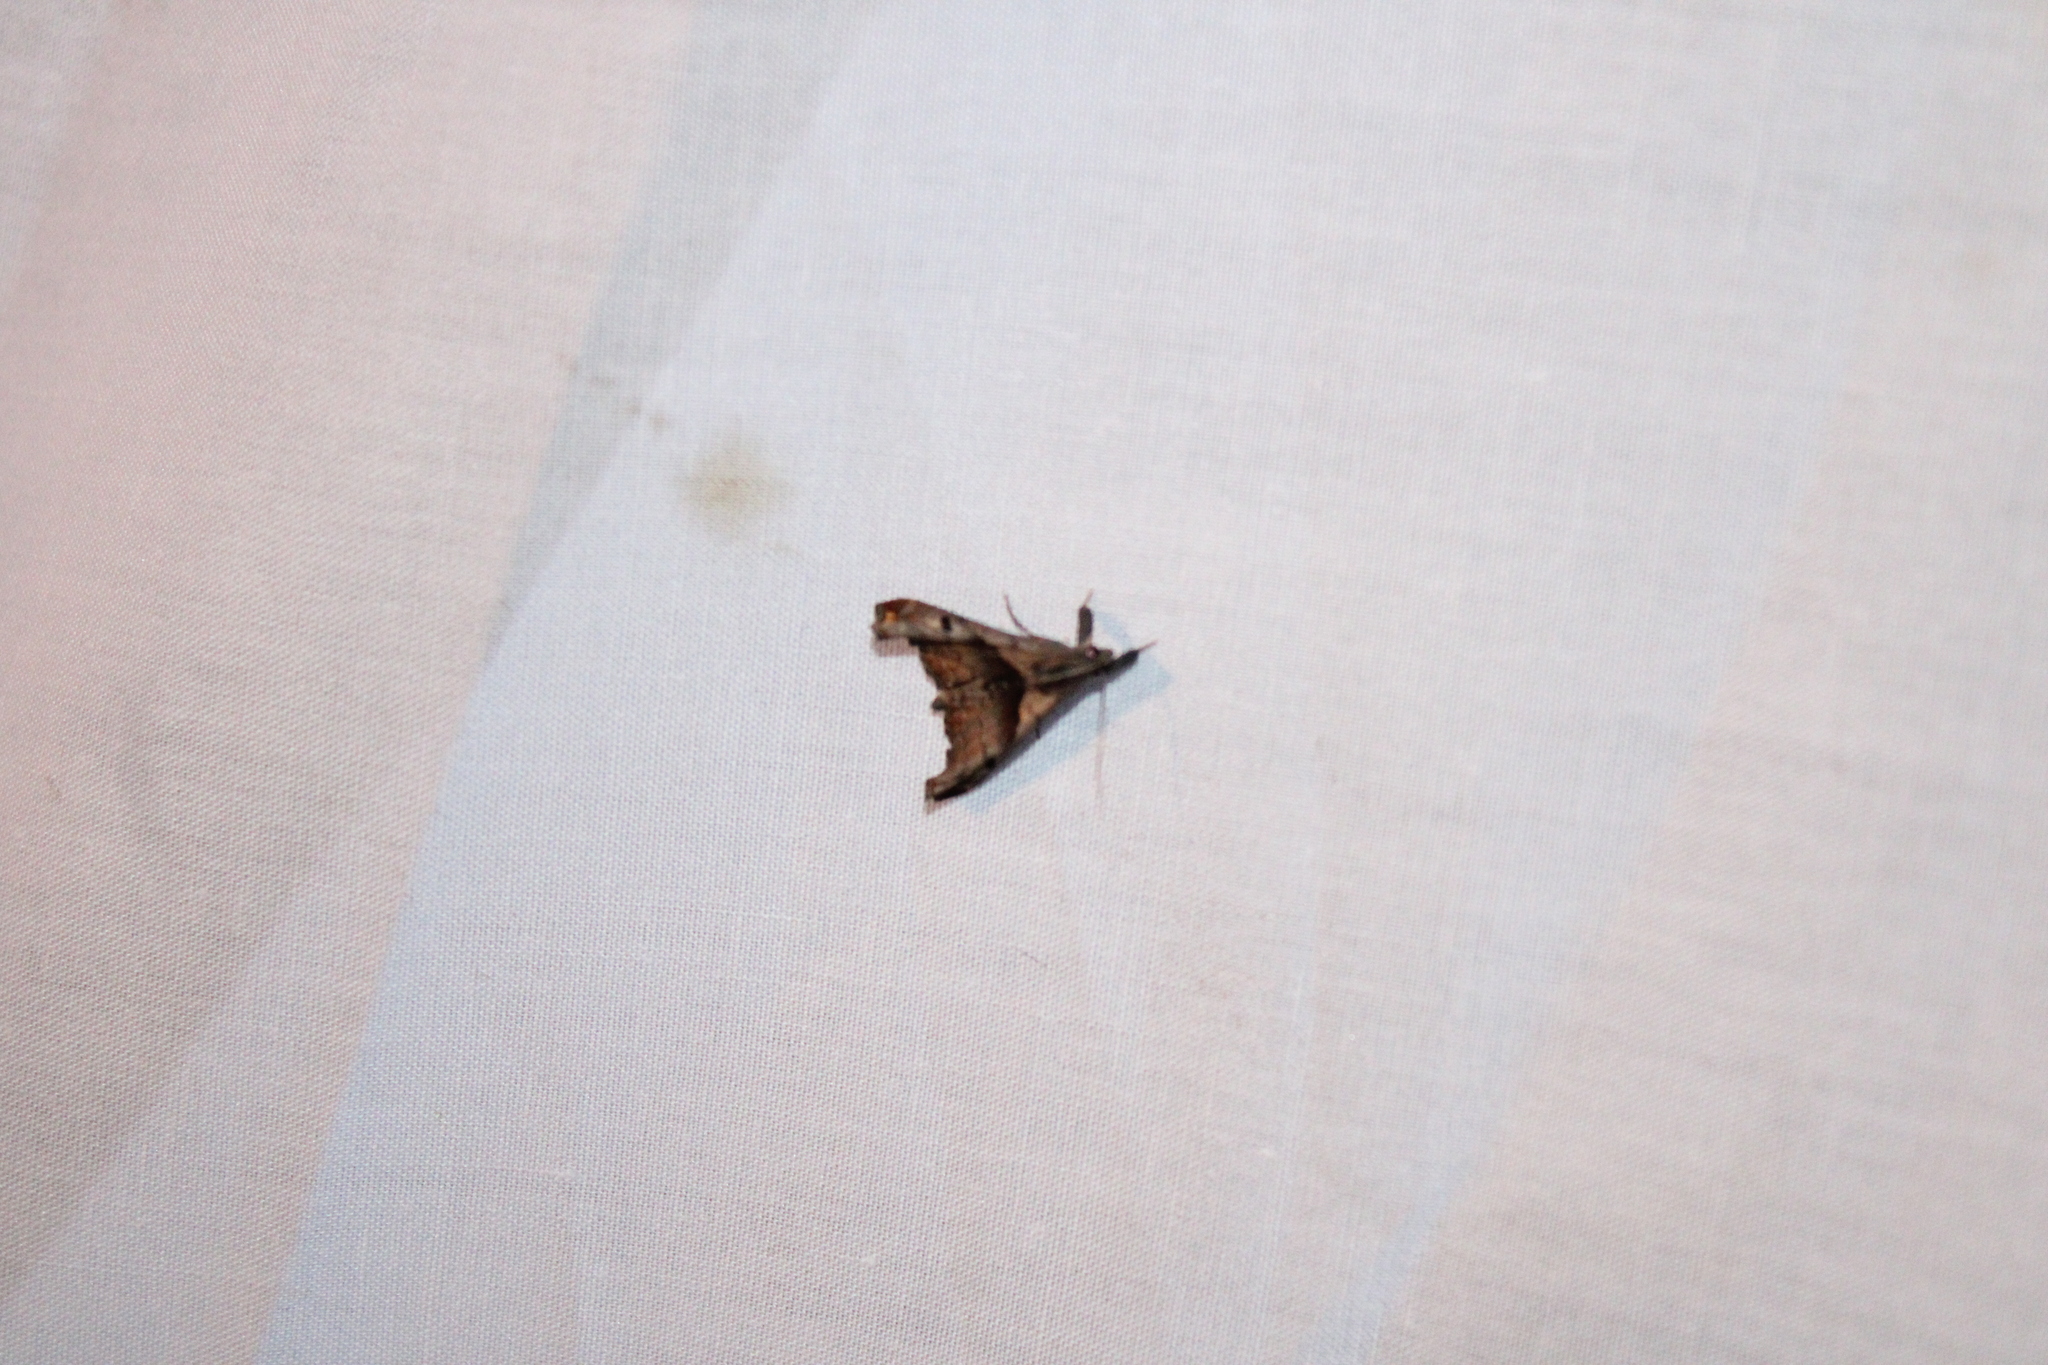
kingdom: Animalia
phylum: Arthropoda
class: Insecta
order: Lepidoptera
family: Erebidae
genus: Palthis
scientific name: Palthis angulalis
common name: Dark-spotted palthis moth
